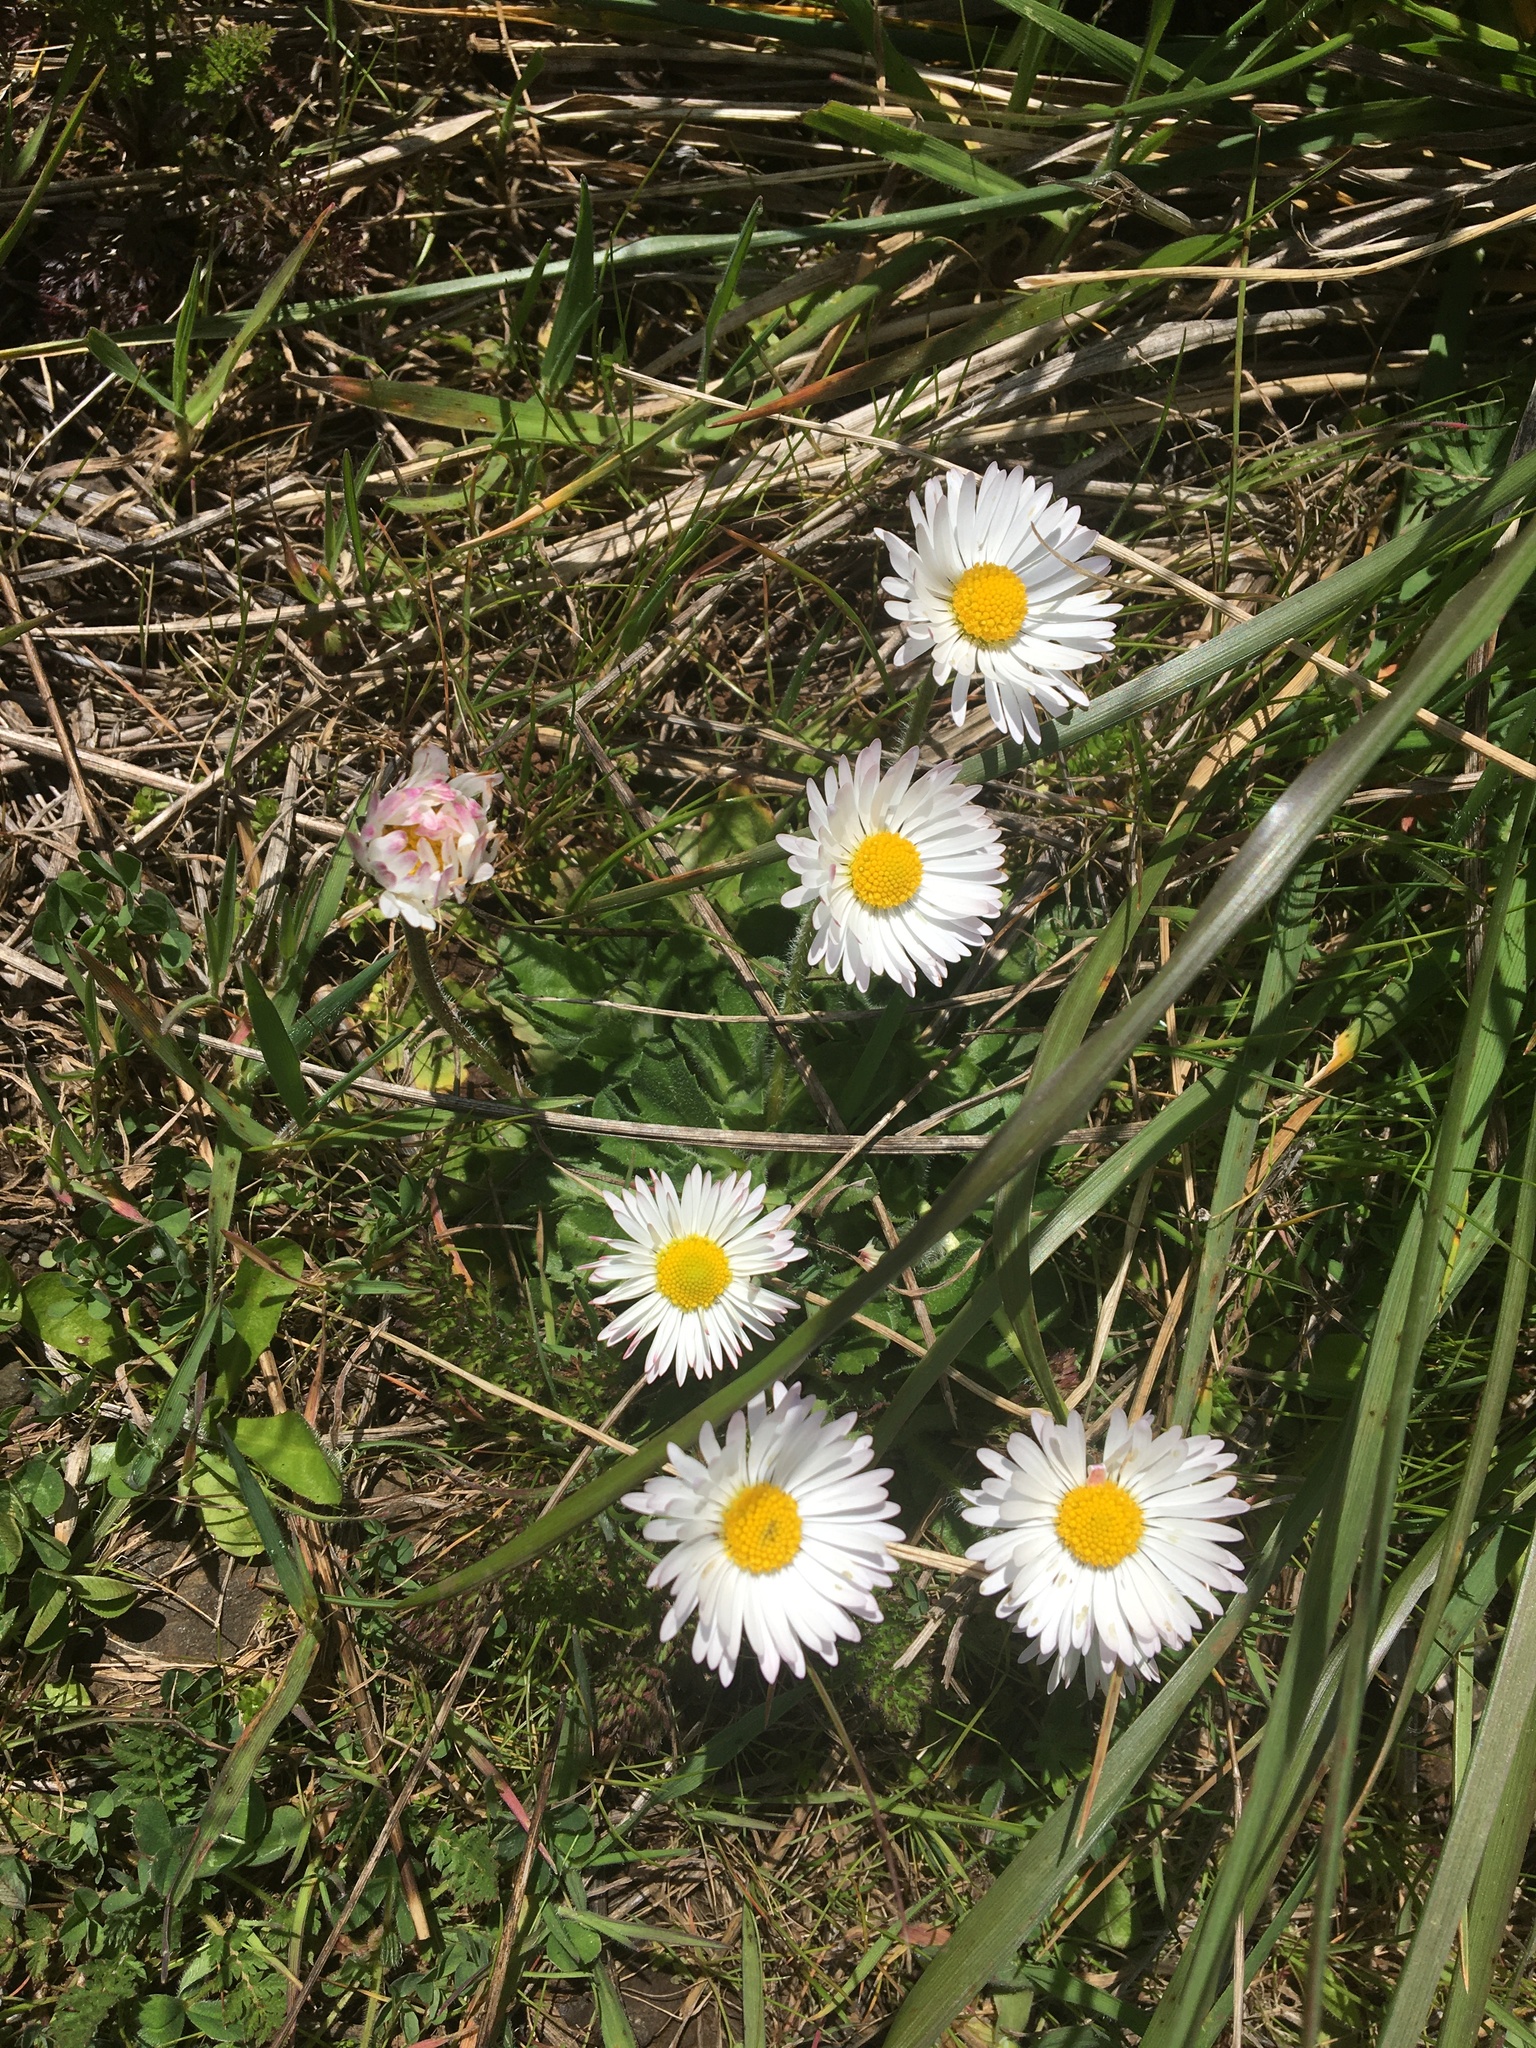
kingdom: Plantae
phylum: Tracheophyta
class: Magnoliopsida
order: Asterales
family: Asteraceae
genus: Bellis
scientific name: Bellis perennis
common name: Lawndaisy
